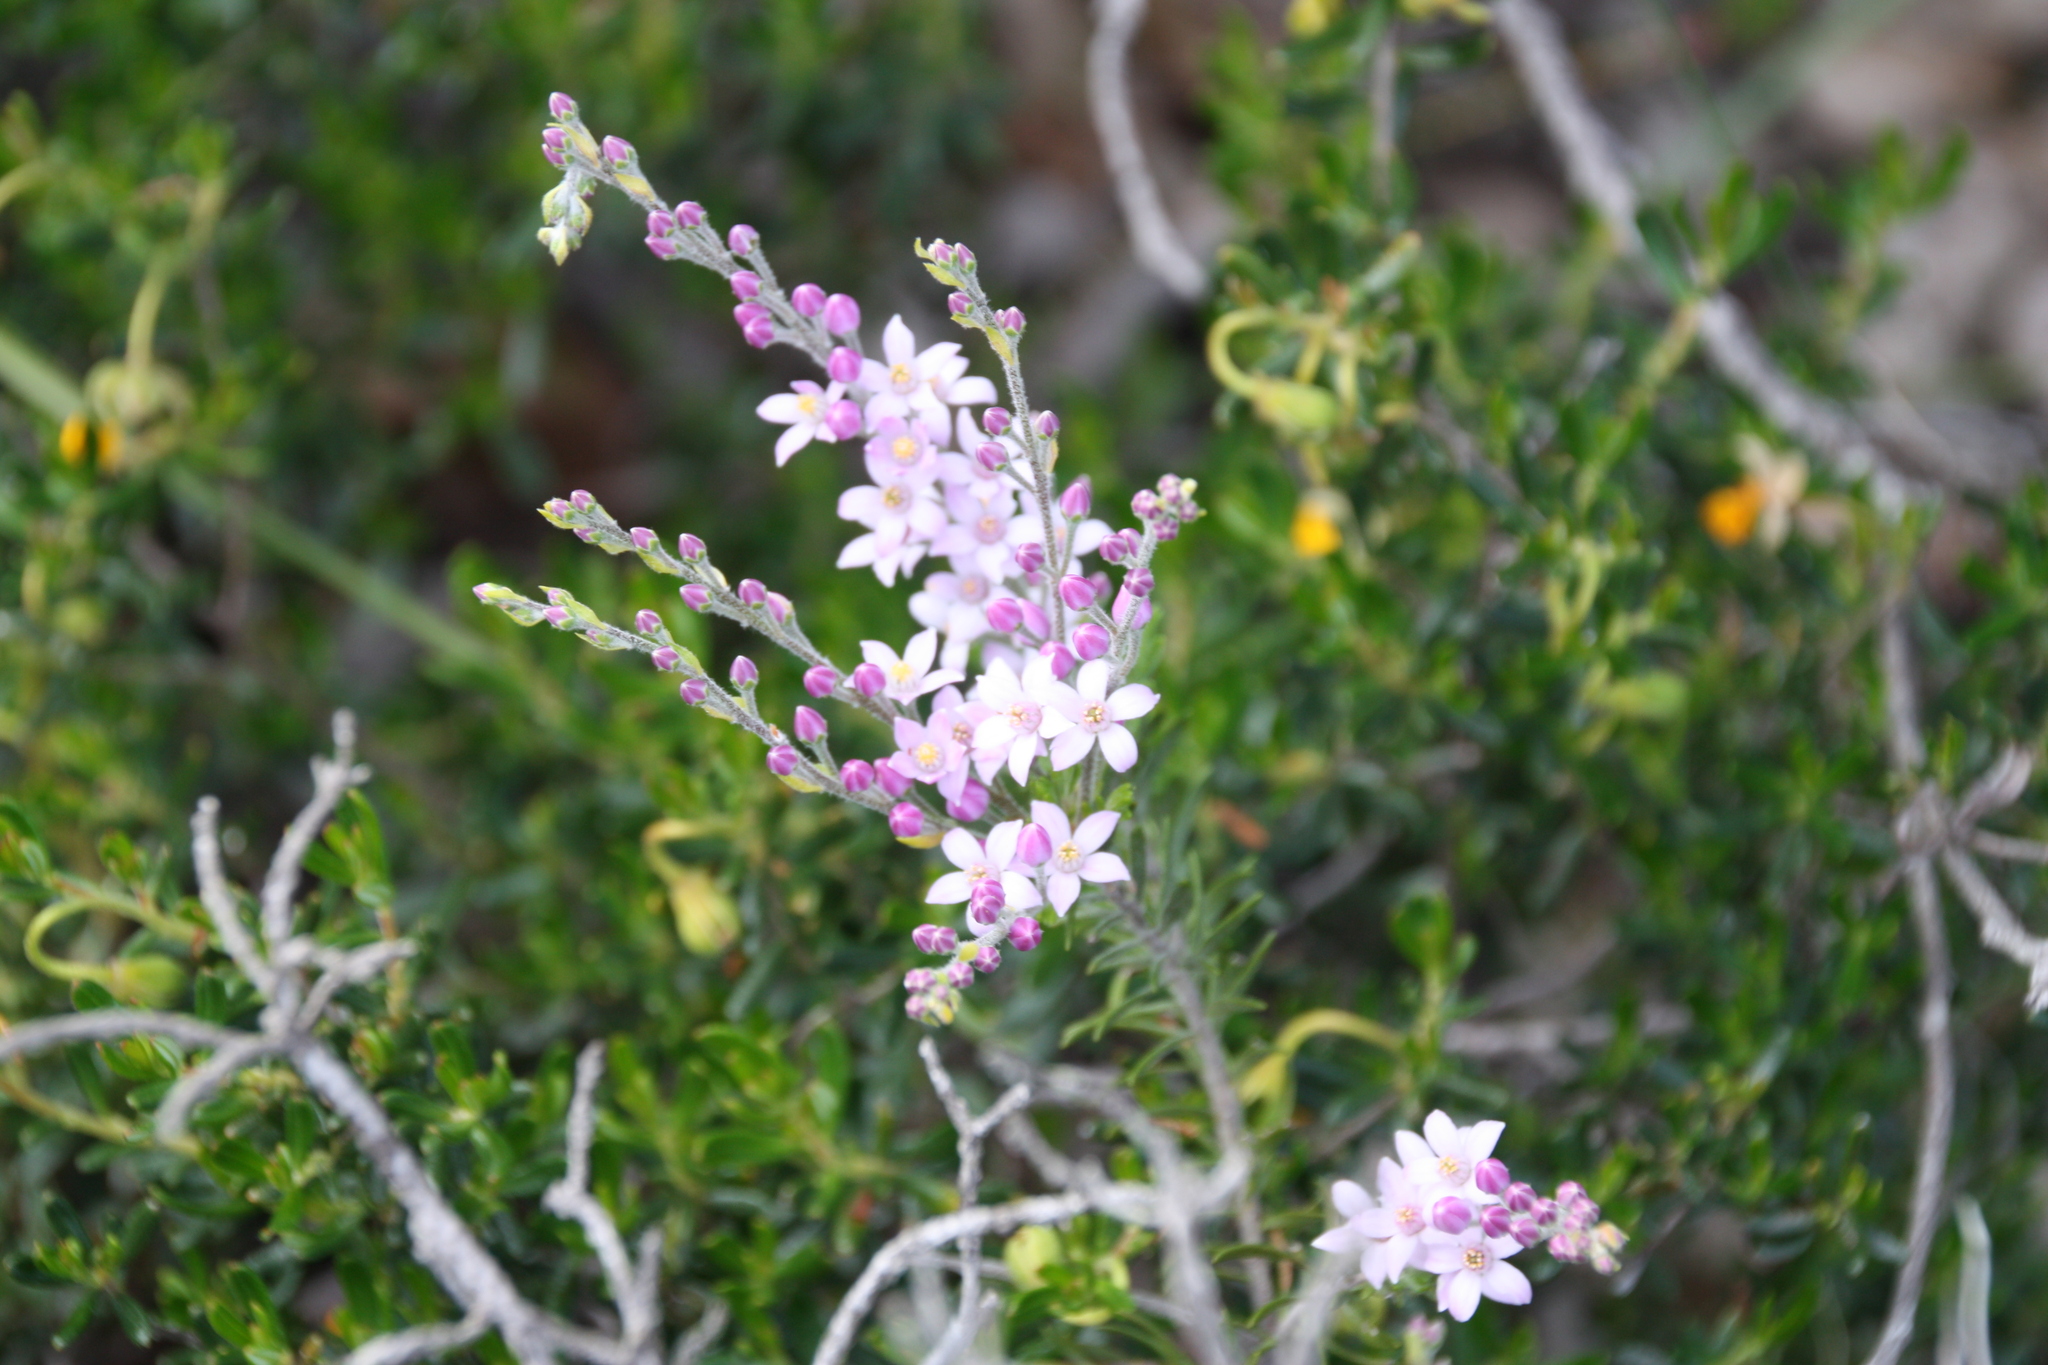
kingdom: Plantae
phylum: Tracheophyta
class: Magnoliopsida
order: Sapindales
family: Rutaceae
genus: Philotheca
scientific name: Philotheca spicata
